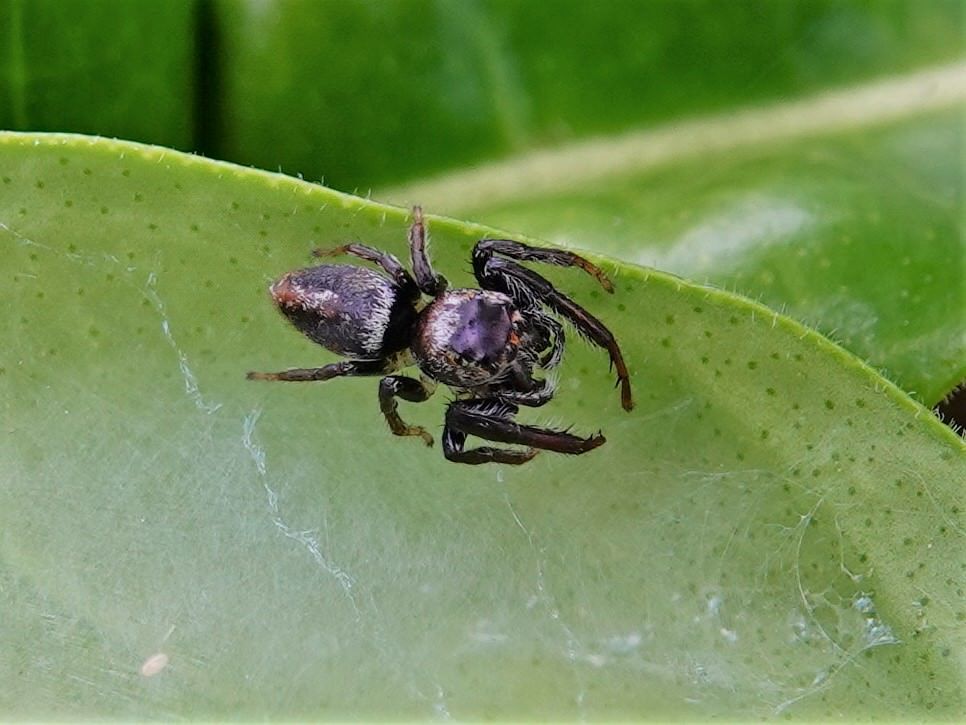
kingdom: Animalia
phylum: Arthropoda
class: Arachnida
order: Araneae
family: Salticidae
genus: Opisthoncus
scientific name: Opisthoncus polyphemus
